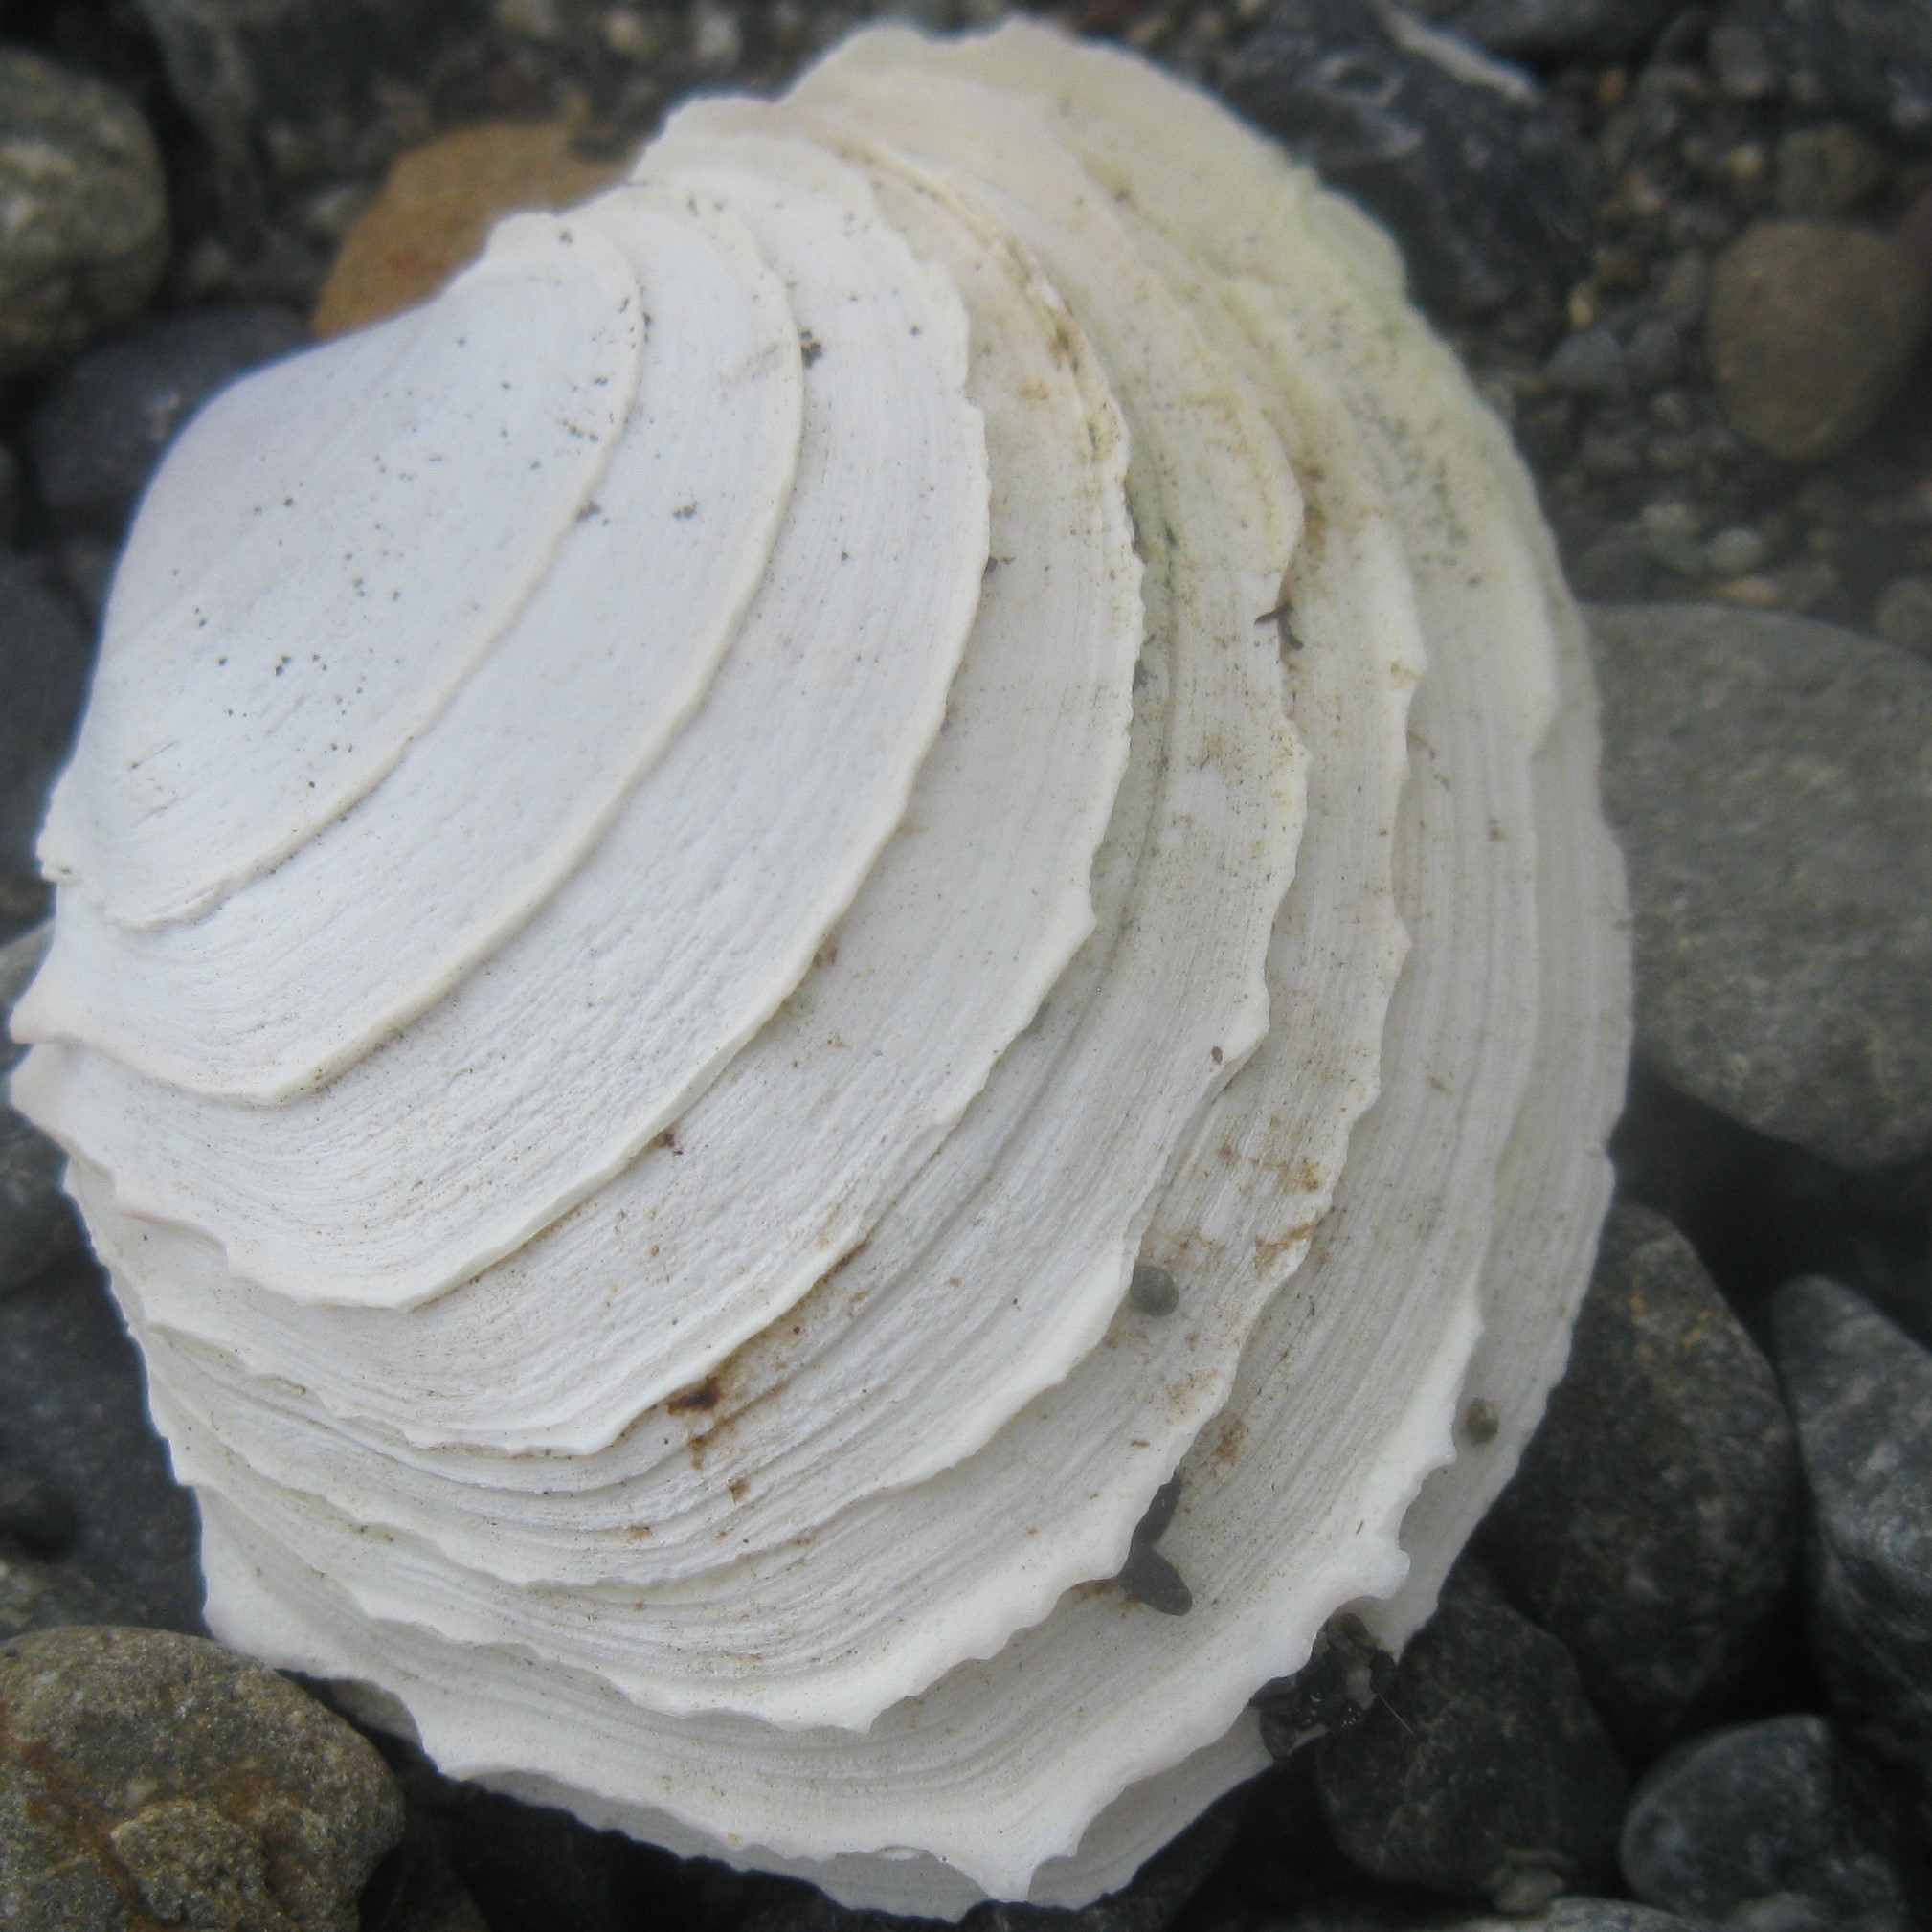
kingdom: Animalia
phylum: Mollusca
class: Bivalvia
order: Venerida
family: Veneridae
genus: Bassina
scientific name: Bassina yatei
